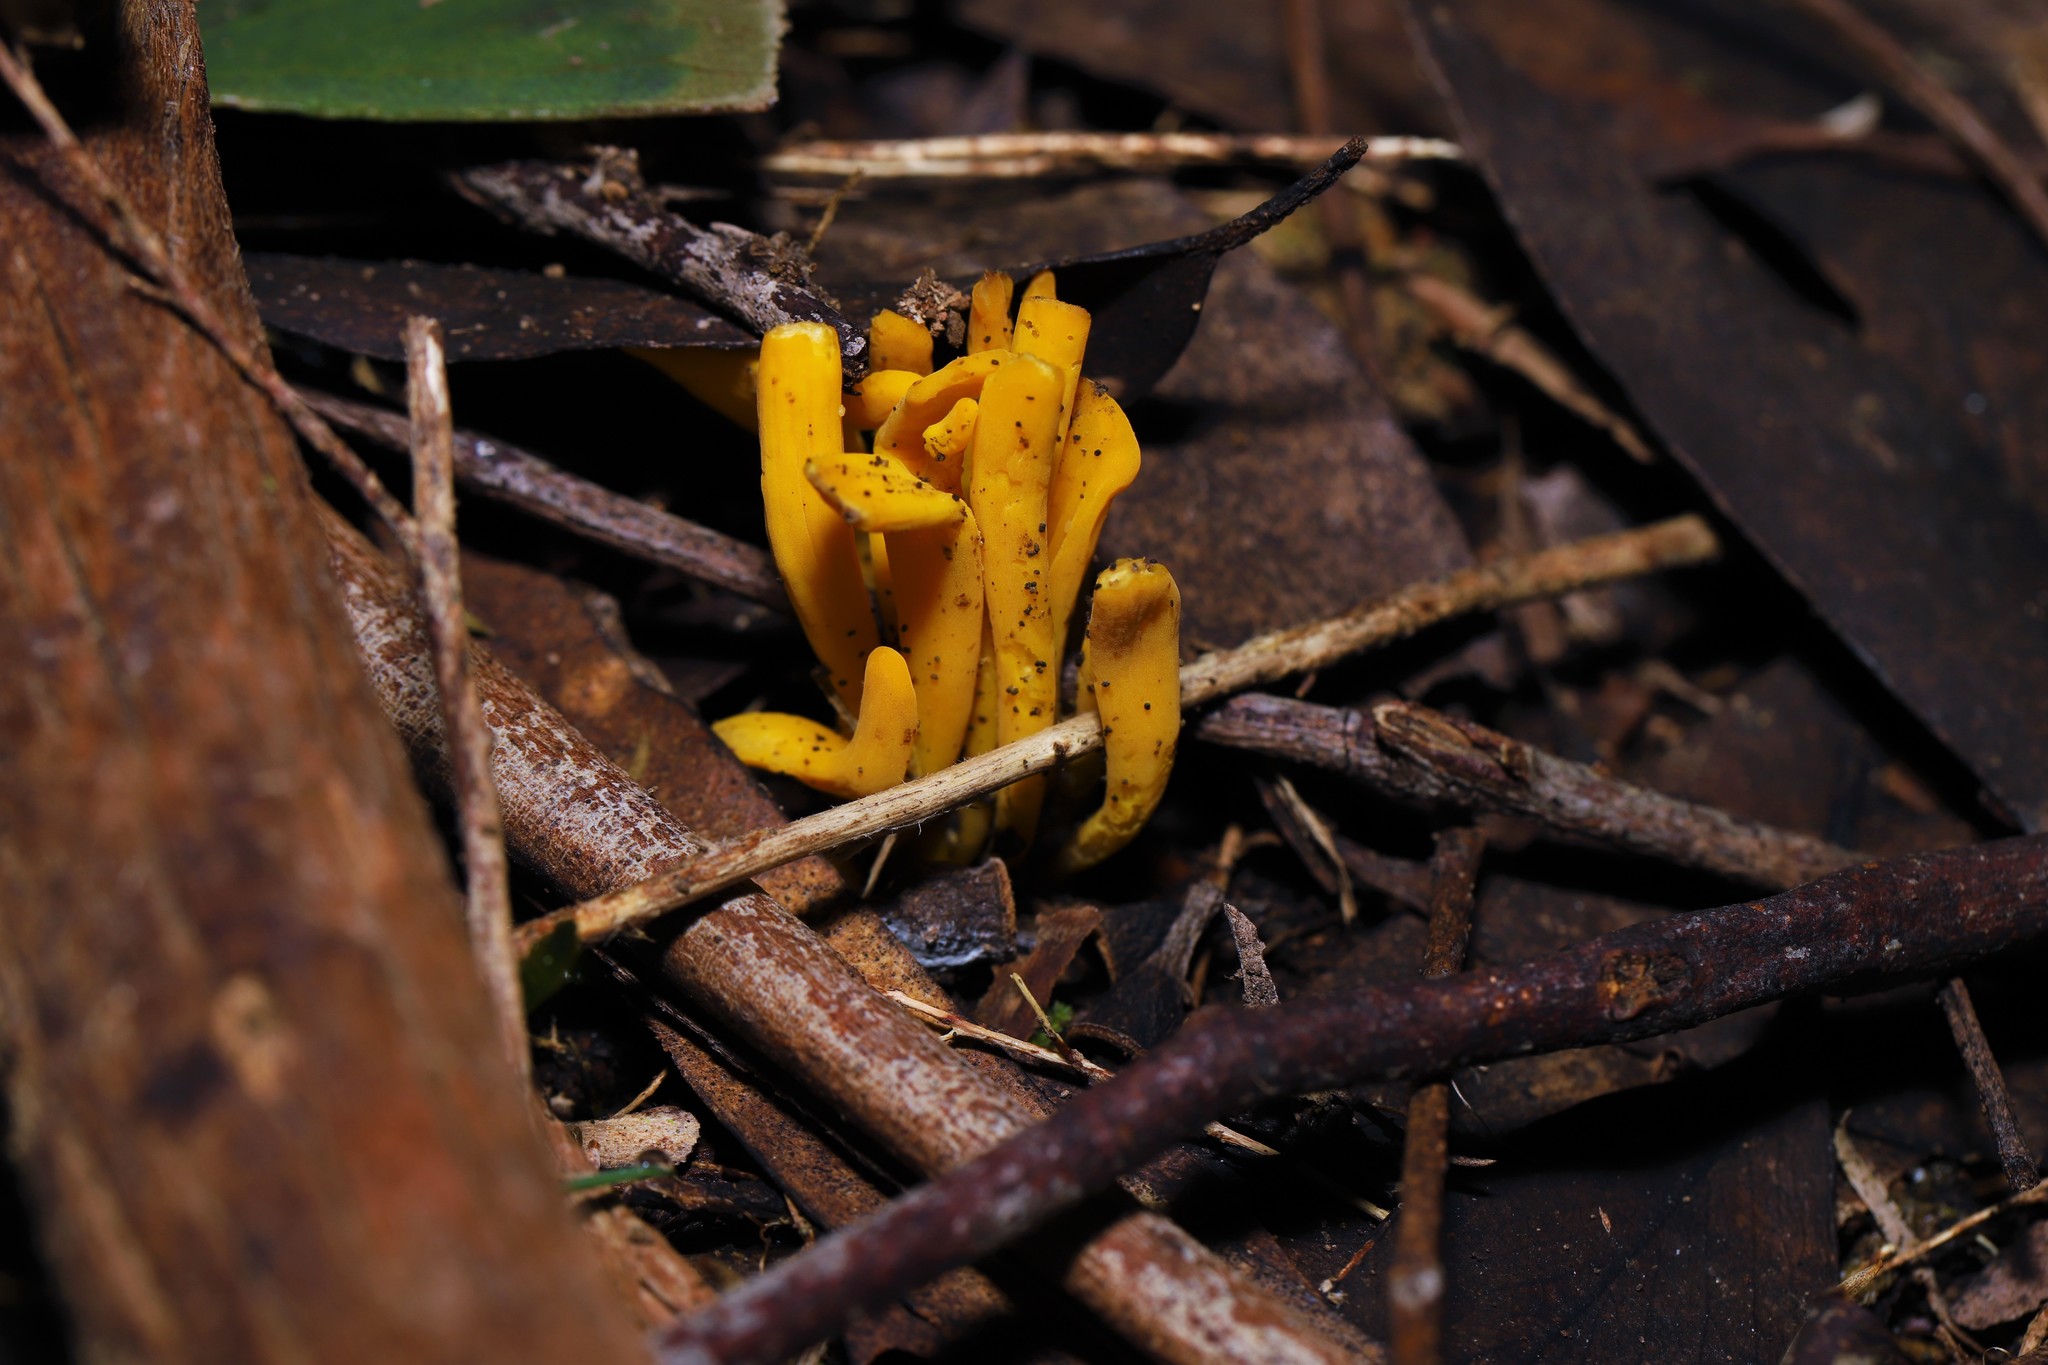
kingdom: Fungi
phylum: Basidiomycota
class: Agaricomycetes
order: Agaricales
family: Clavariaceae
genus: Clavulinopsis
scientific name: Clavulinopsis amoena
